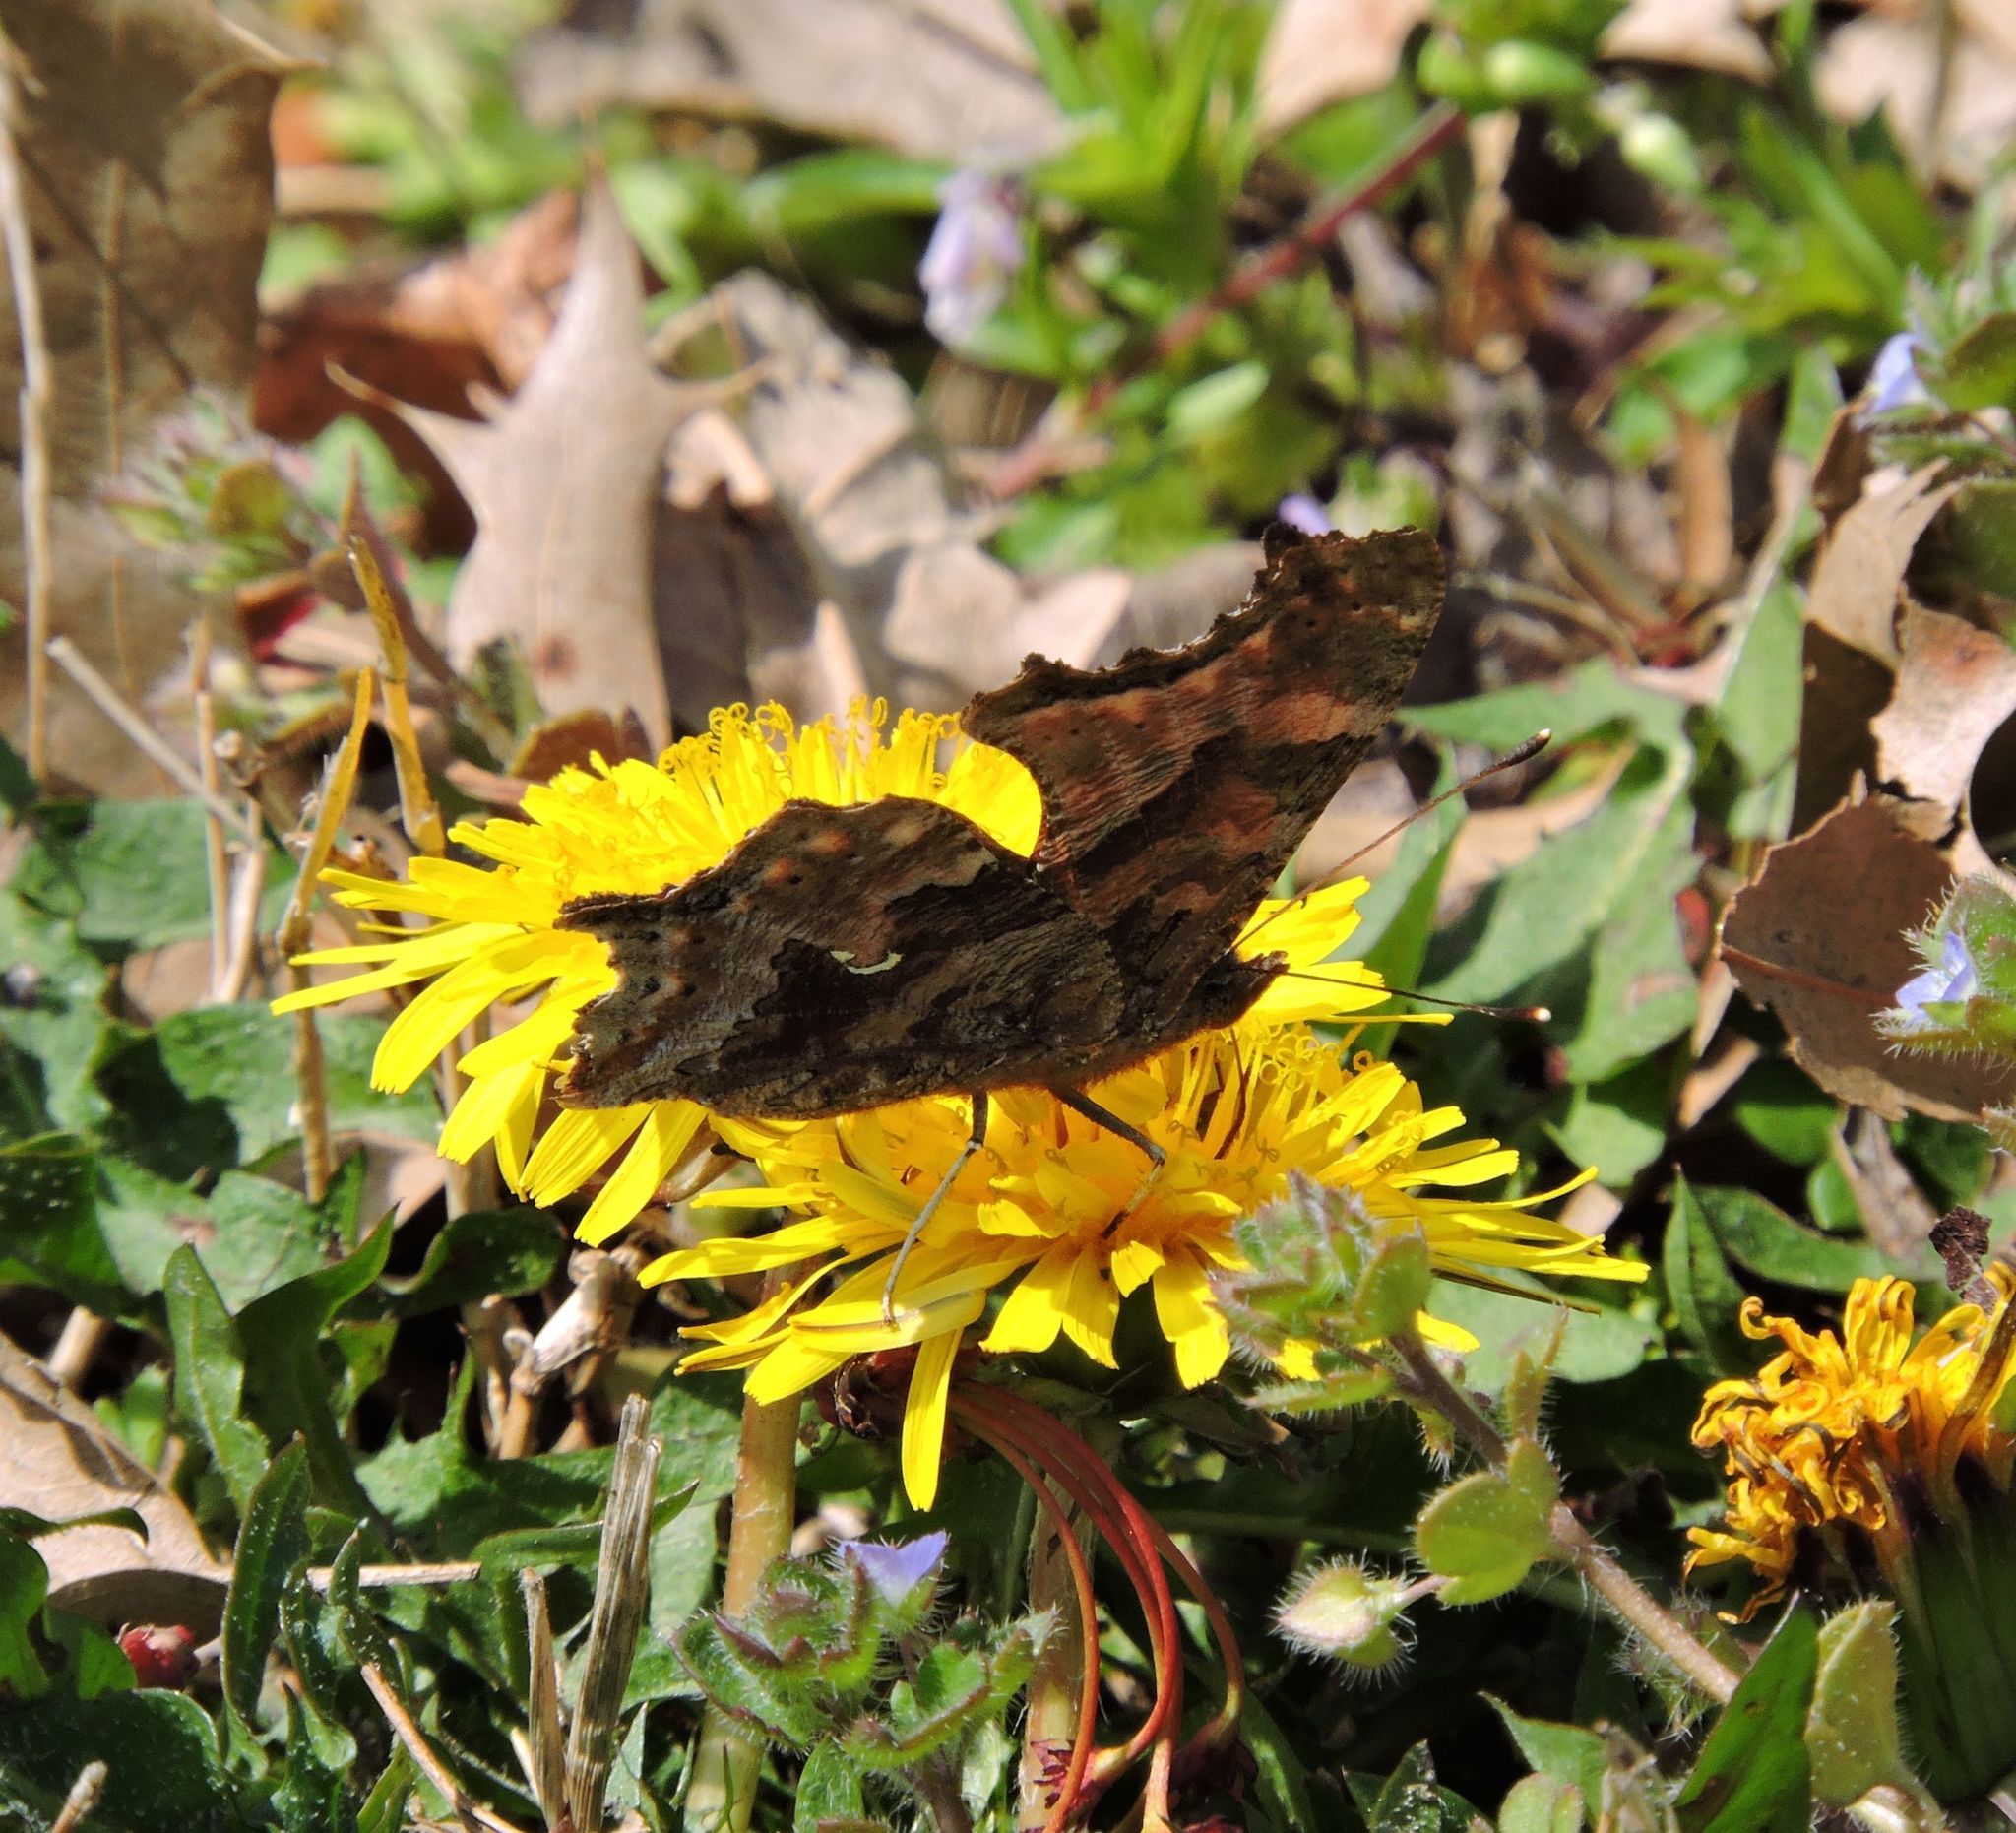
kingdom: Animalia
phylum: Arthropoda
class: Insecta
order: Lepidoptera
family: Nymphalidae
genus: Polygonia
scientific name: Polygonia comma
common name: Eastern comma
